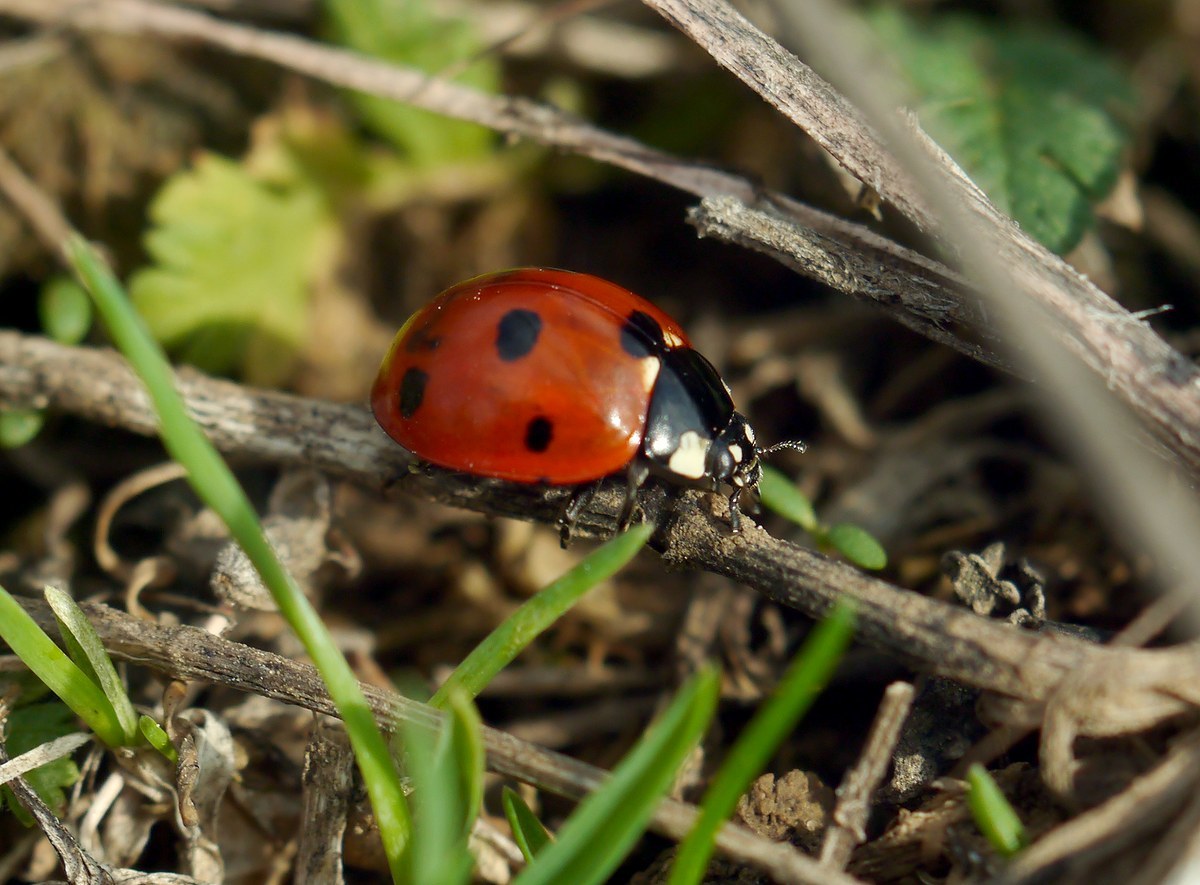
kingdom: Animalia
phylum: Arthropoda
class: Insecta
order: Coleoptera
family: Coccinellidae
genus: Coccinella
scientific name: Coccinella septempunctata
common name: Sevenspotted lady beetle
